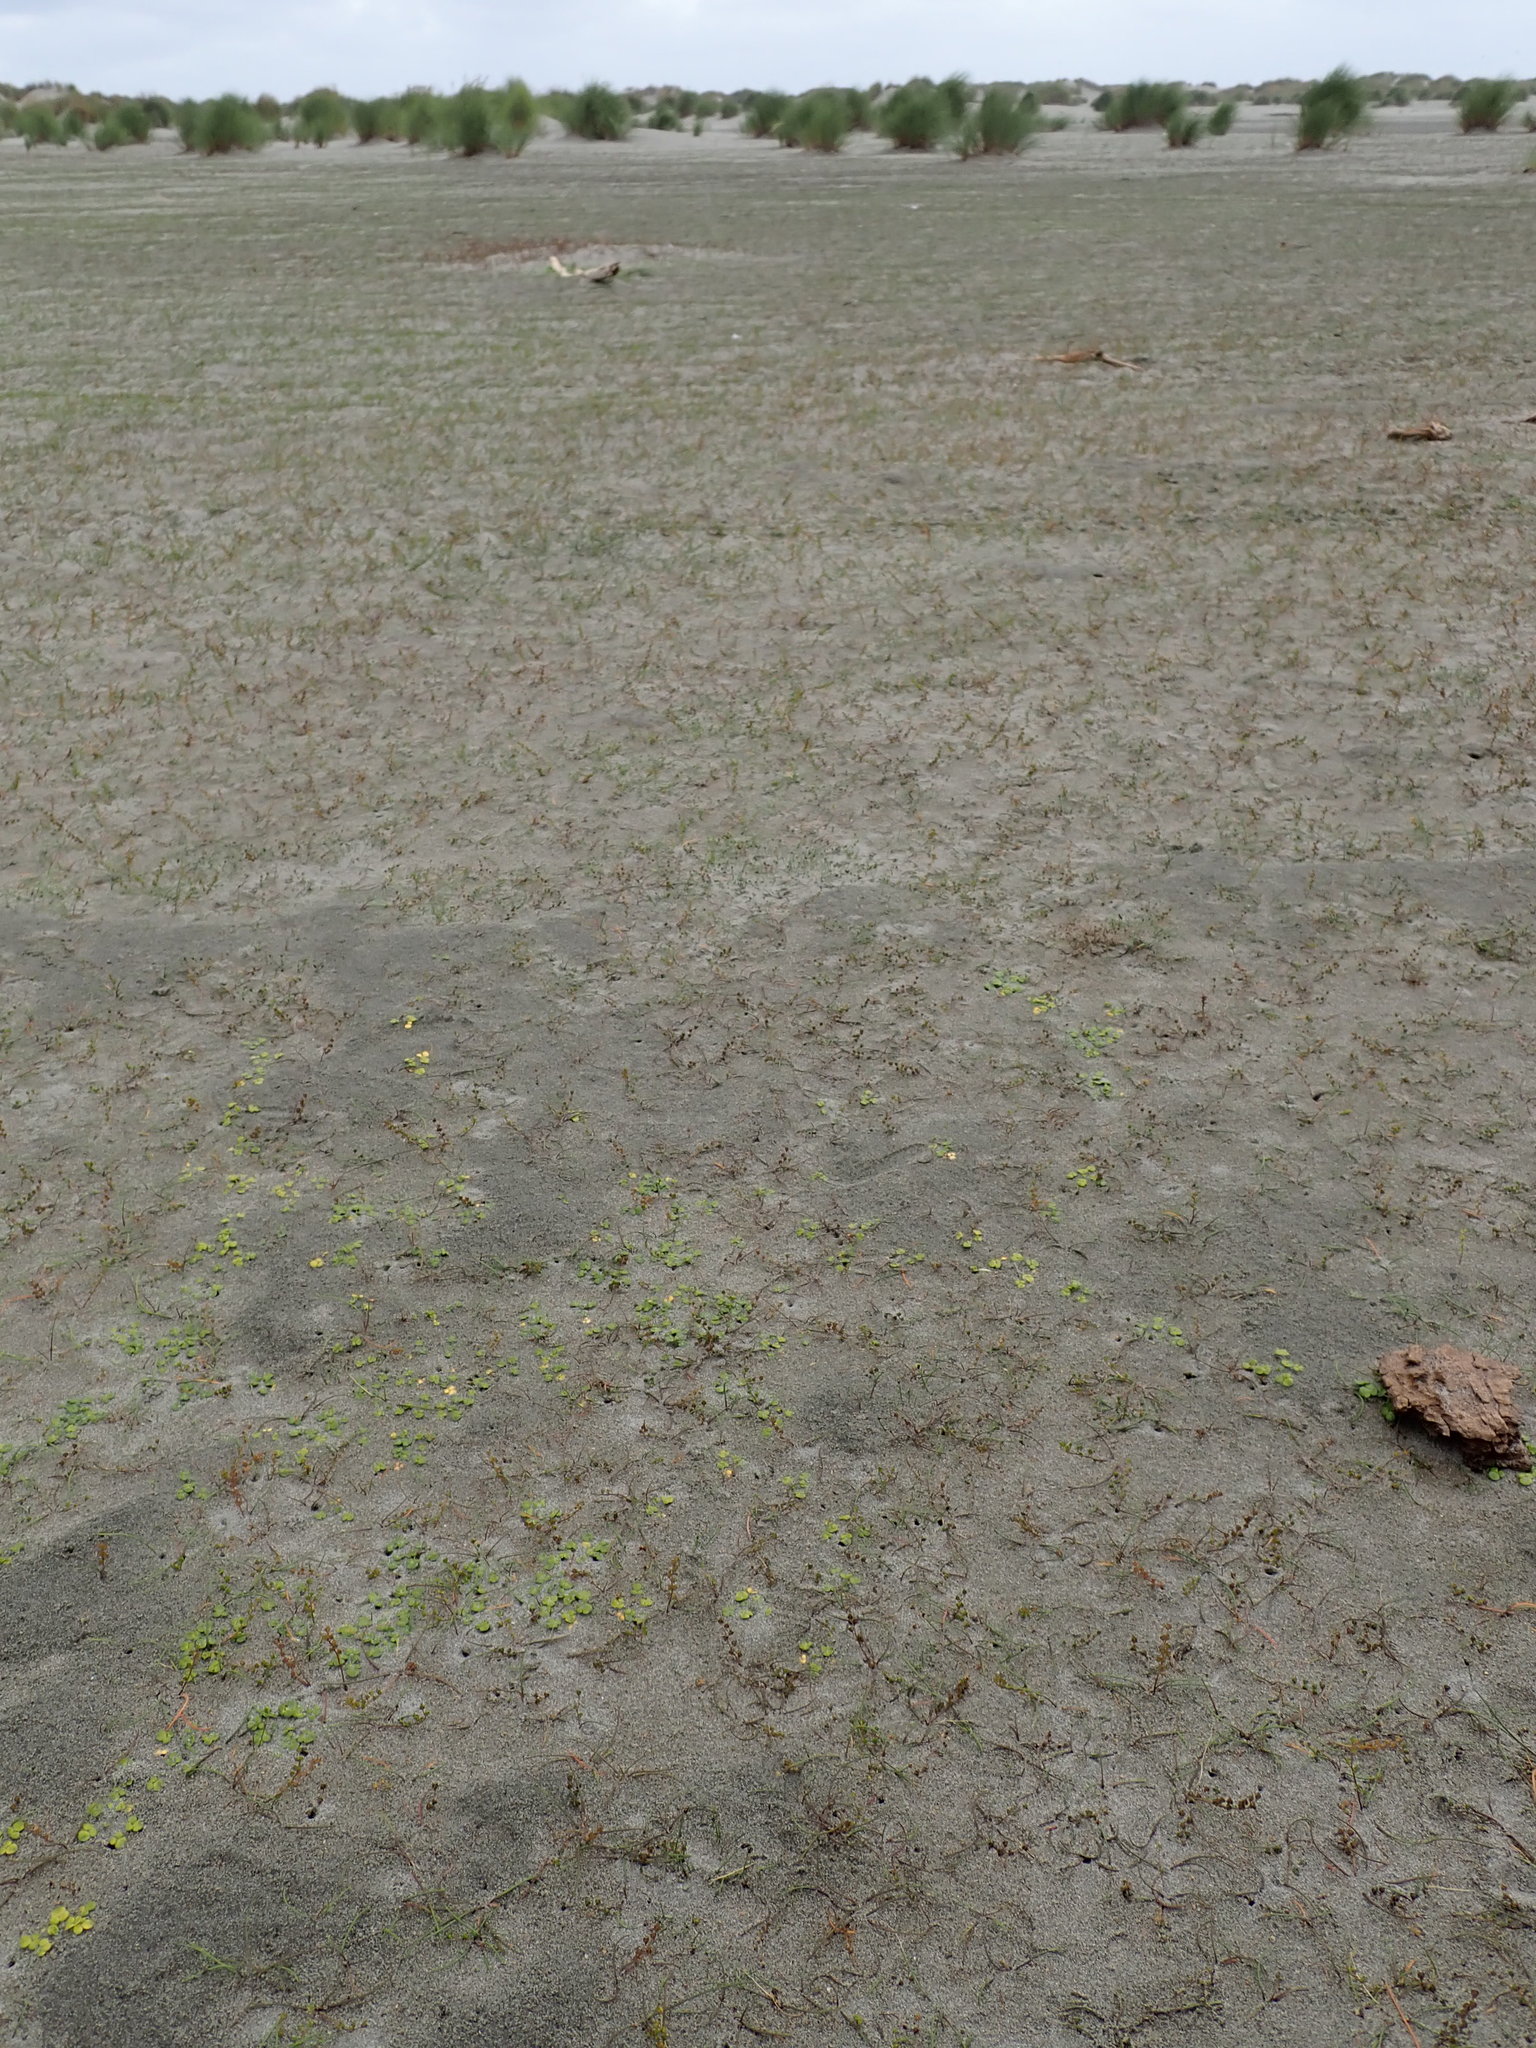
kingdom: Plantae
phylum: Tracheophyta
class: Magnoliopsida
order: Ranunculales
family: Ranunculaceae
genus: Ranunculus
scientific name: Ranunculus acaulis
